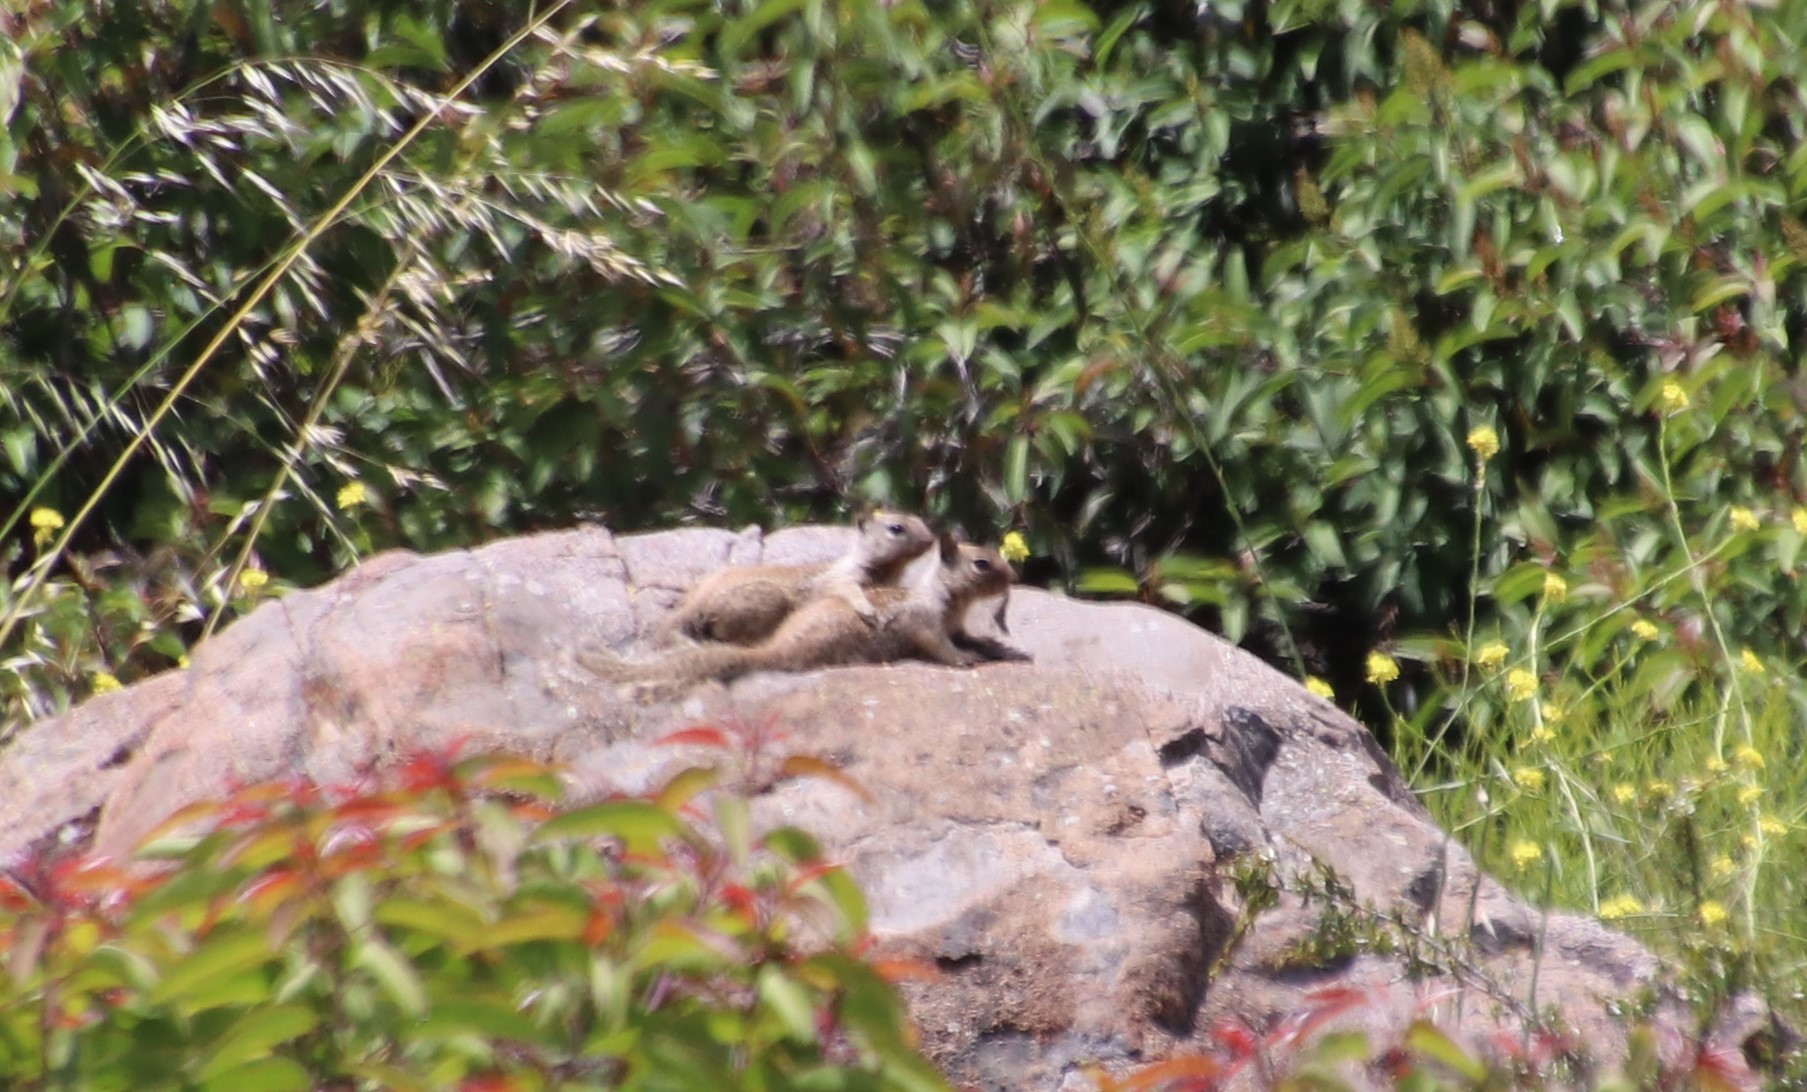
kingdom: Animalia
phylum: Chordata
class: Mammalia
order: Rodentia
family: Sciuridae
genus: Otospermophilus
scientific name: Otospermophilus beecheyi
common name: California ground squirrel
